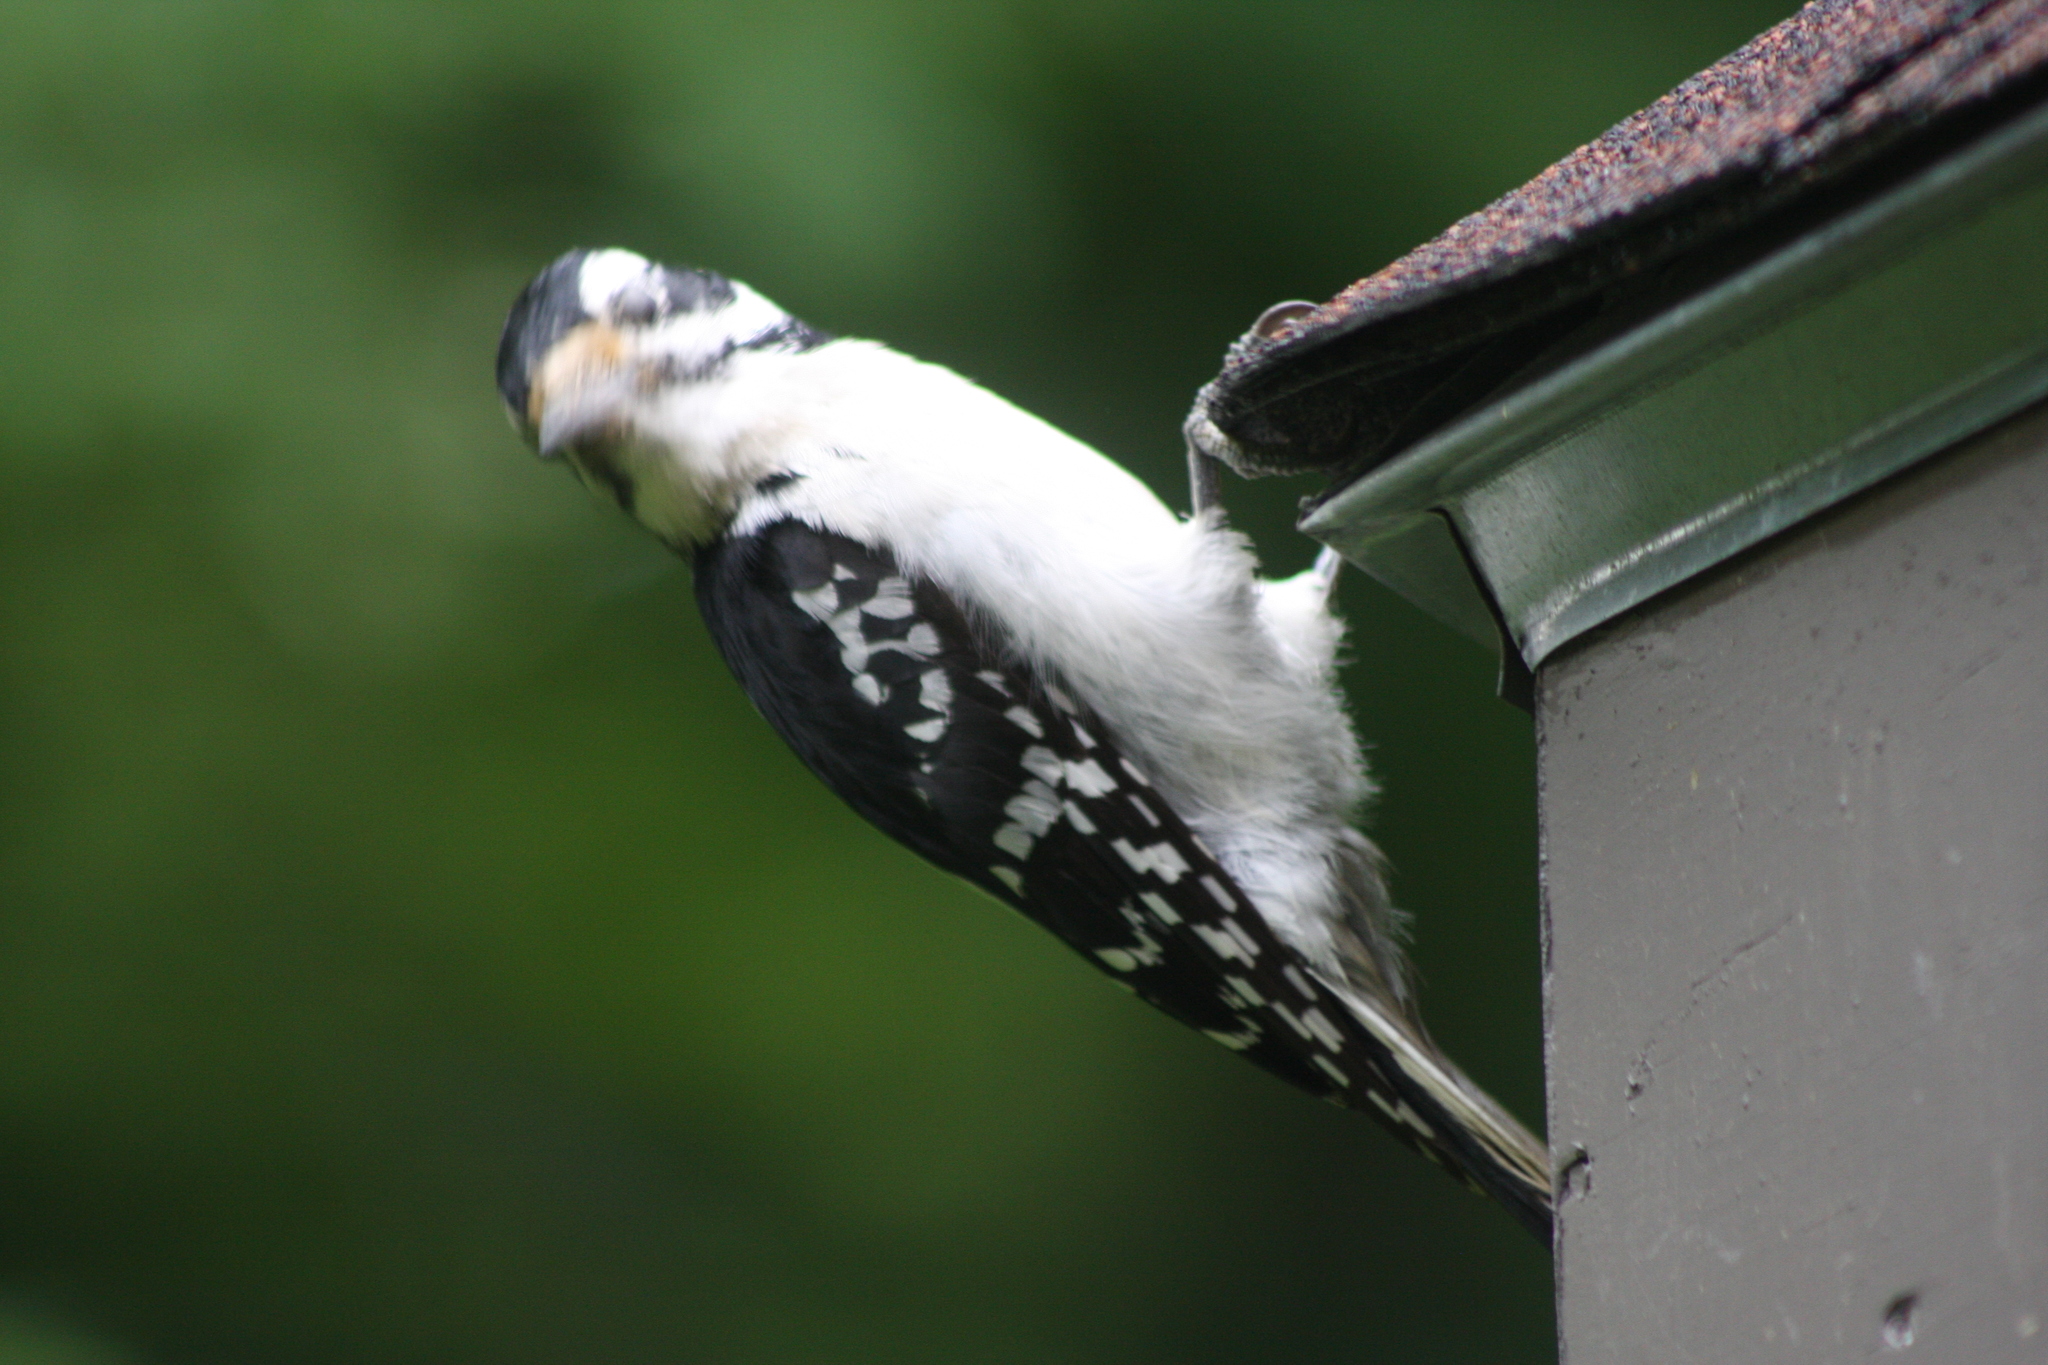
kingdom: Animalia
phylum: Chordata
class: Aves
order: Piciformes
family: Picidae
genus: Leuconotopicus
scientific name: Leuconotopicus villosus
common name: Hairy woodpecker
